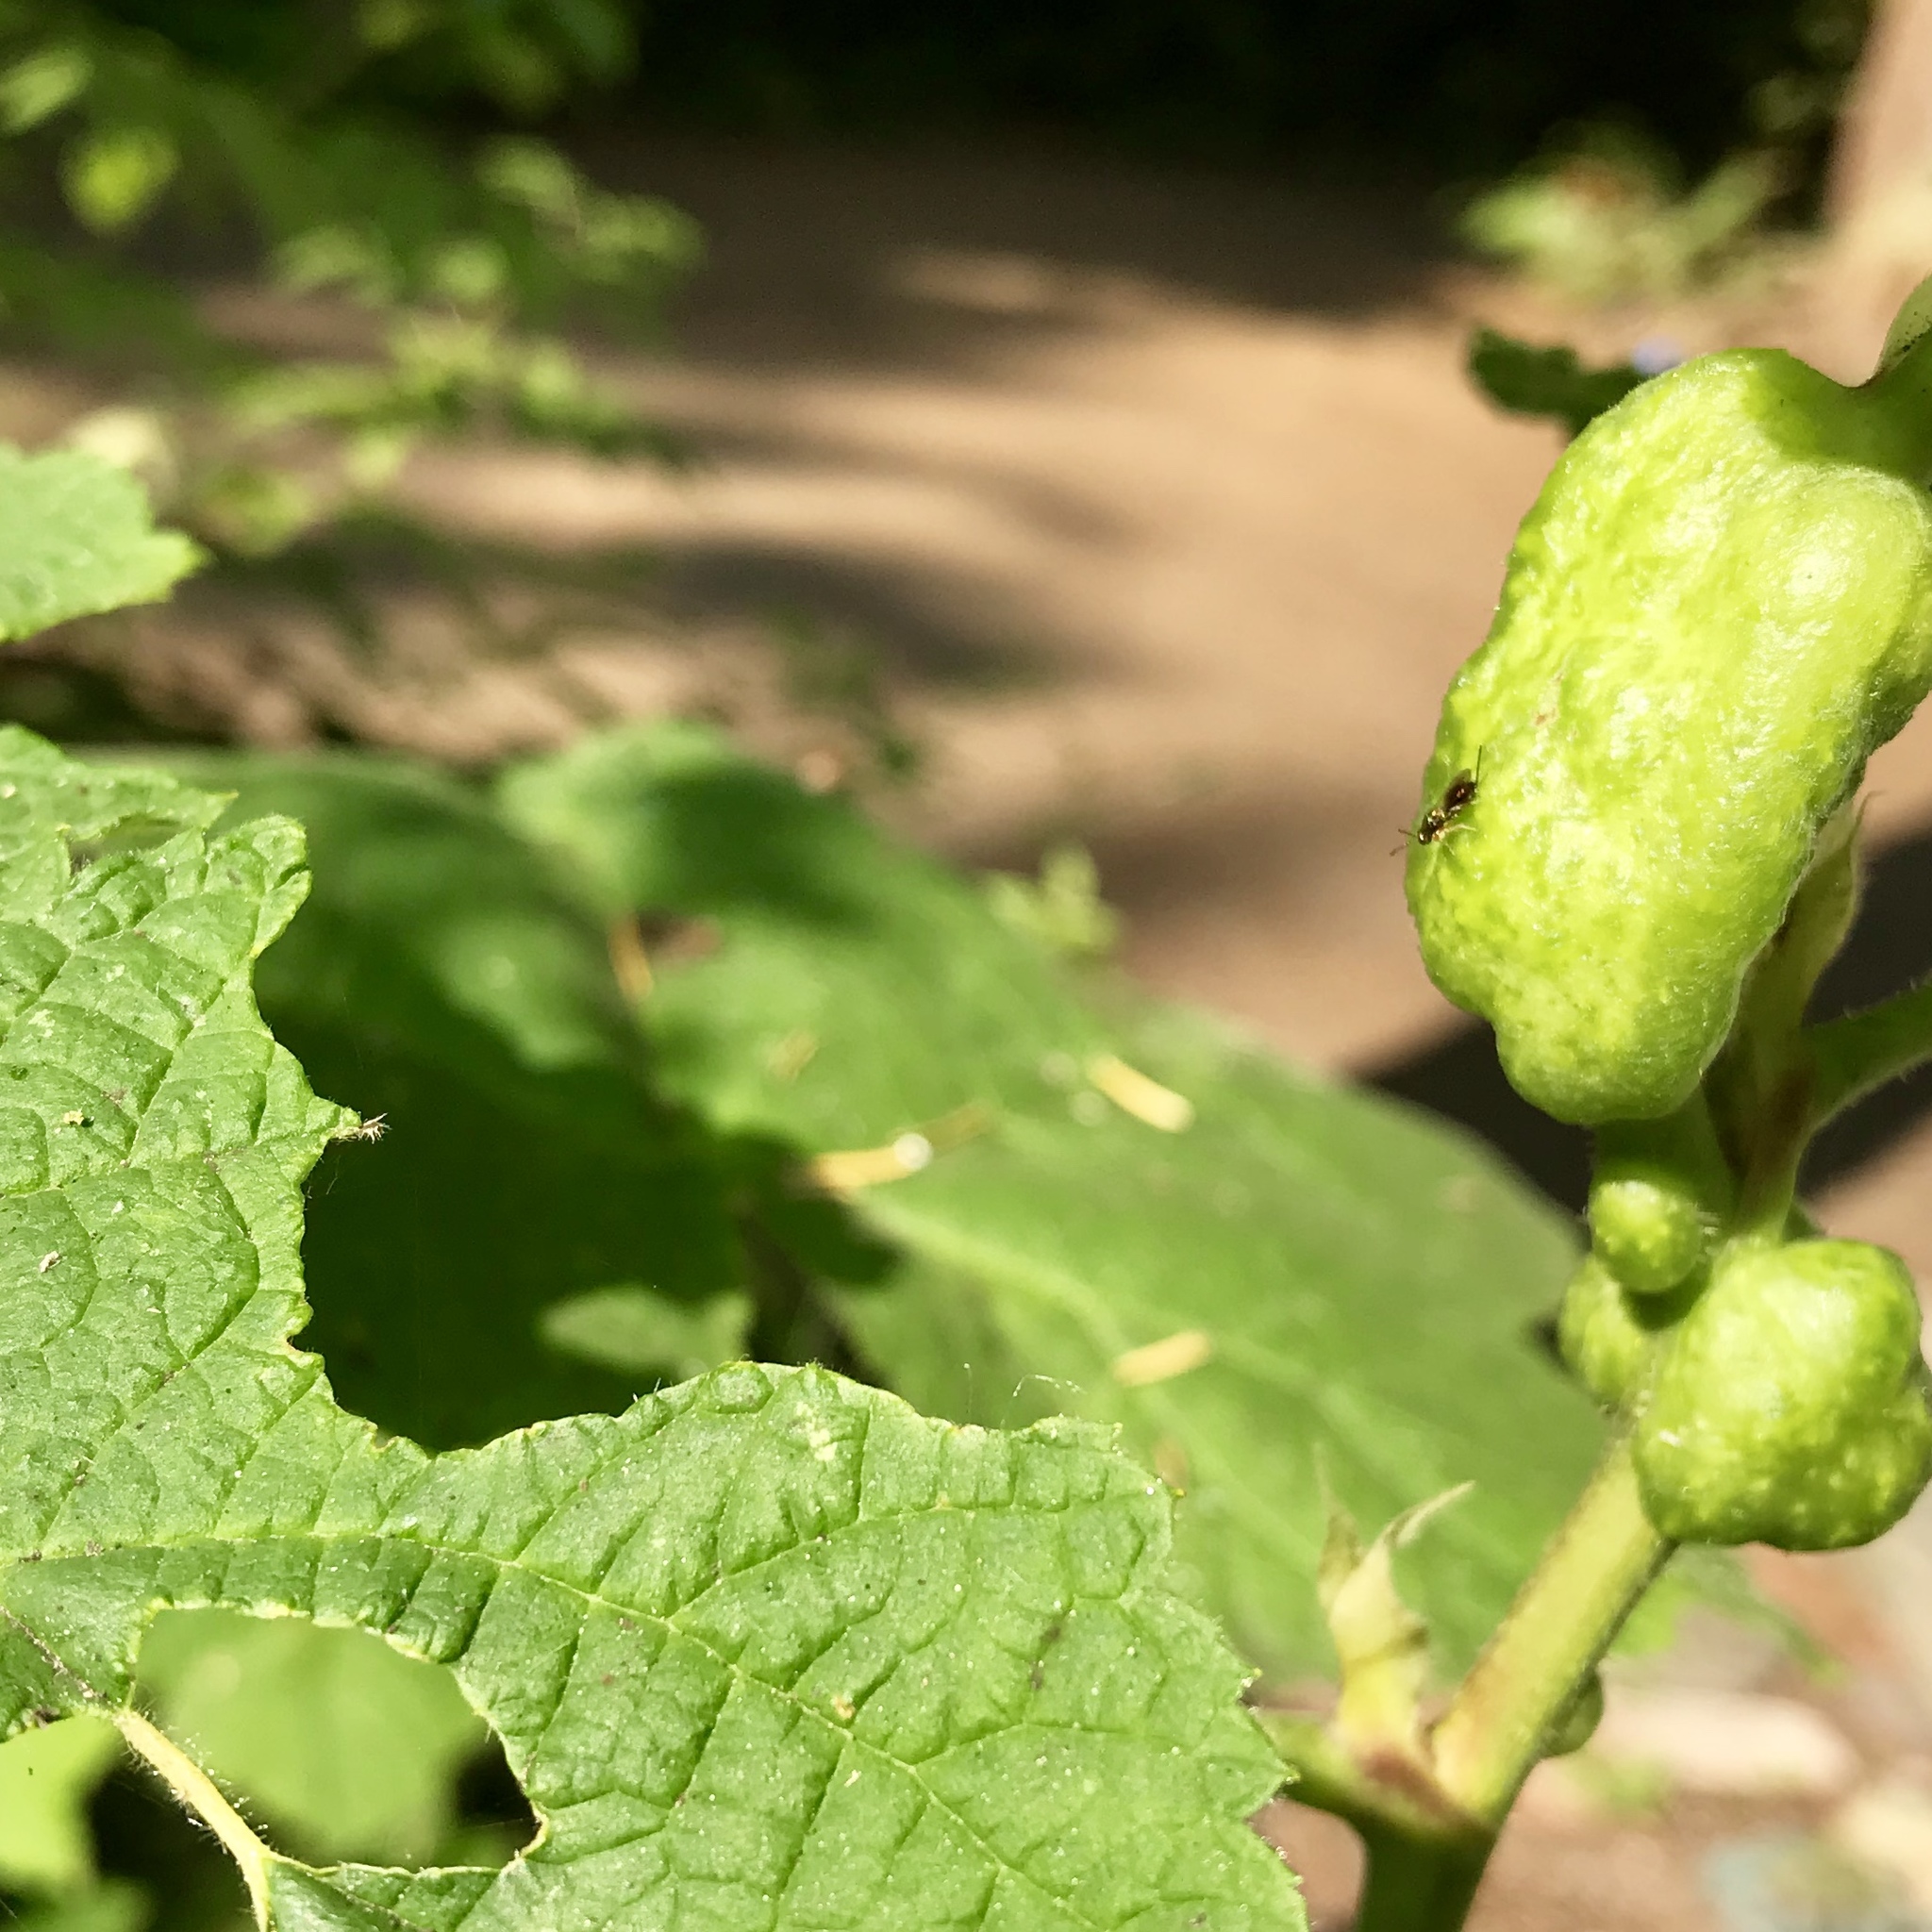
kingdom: Animalia
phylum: Arthropoda
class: Insecta
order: Hymenoptera
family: Cynipidae
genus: Diastrophus
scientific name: Diastrophus
